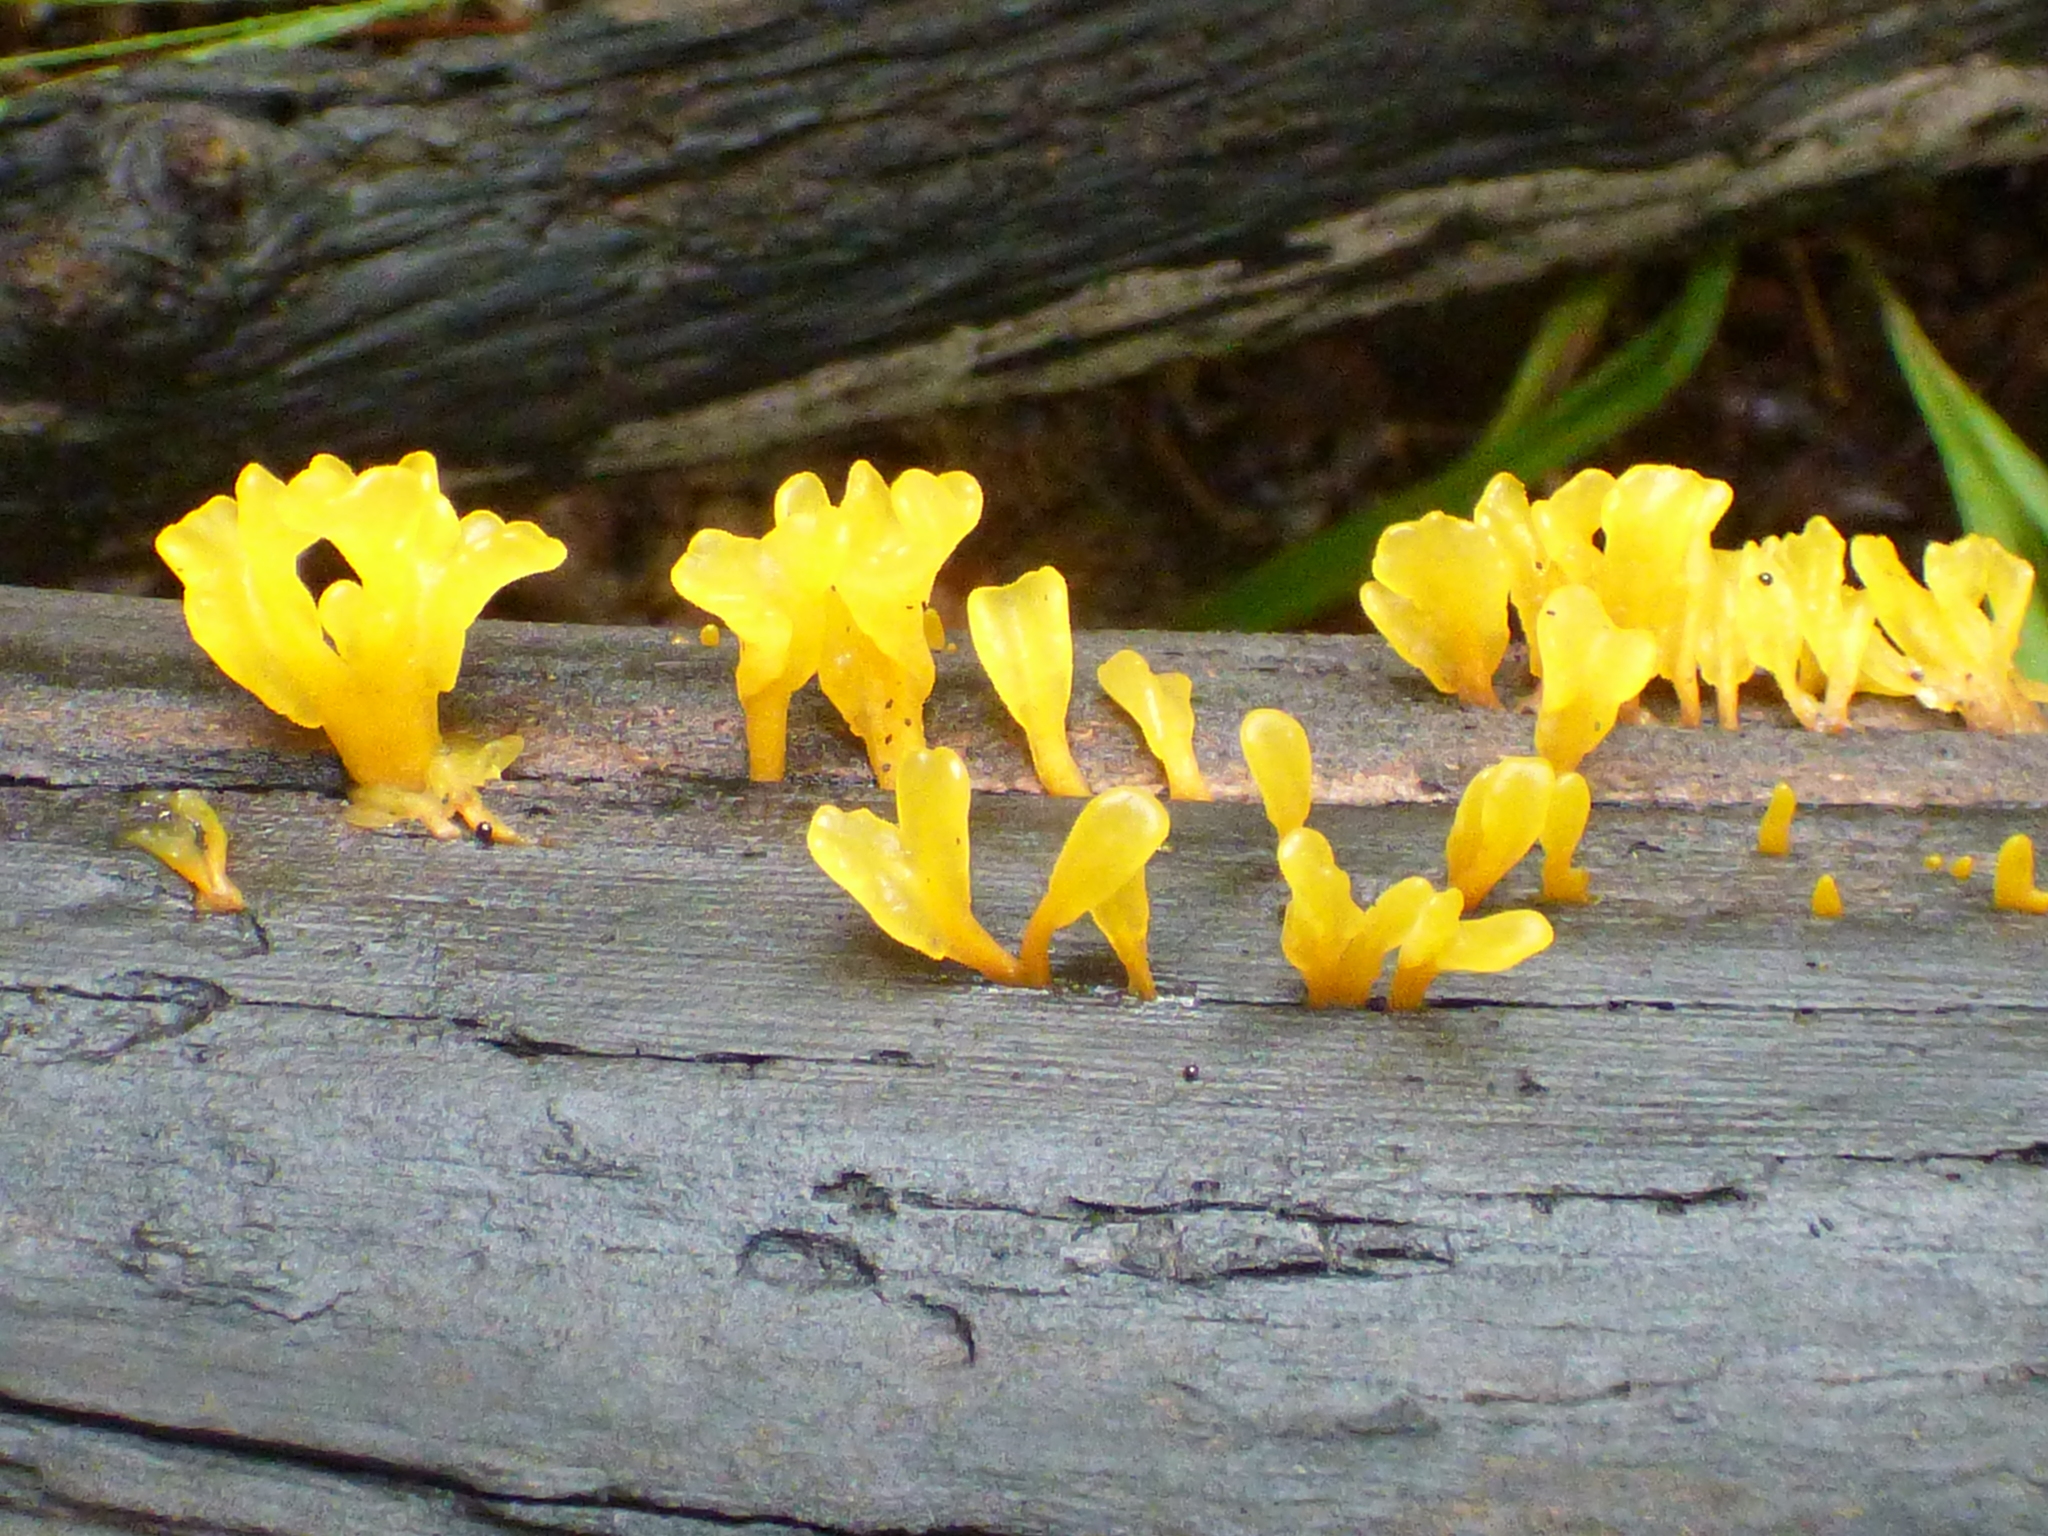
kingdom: Fungi
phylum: Basidiomycota
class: Dacrymycetes
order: Dacrymycetales
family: Dacrymycetaceae
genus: Dacrymyces
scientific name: Dacrymyces spathularius
